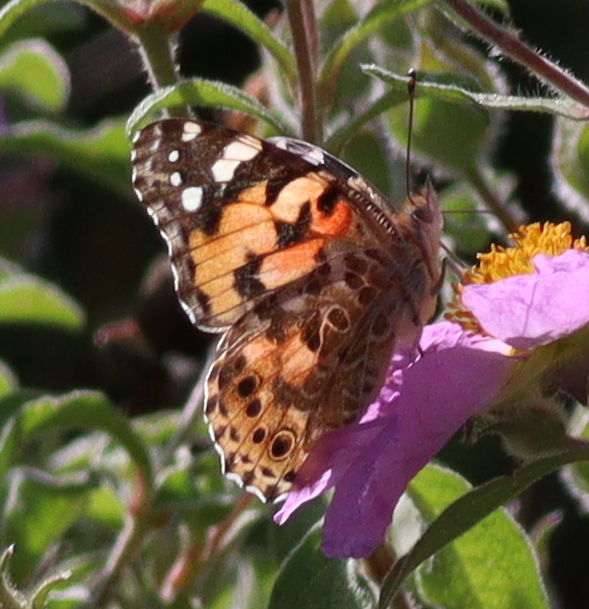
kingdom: Animalia
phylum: Arthropoda
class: Insecta
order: Lepidoptera
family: Nymphalidae
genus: Vanessa
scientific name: Vanessa cardui
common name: Painted lady
